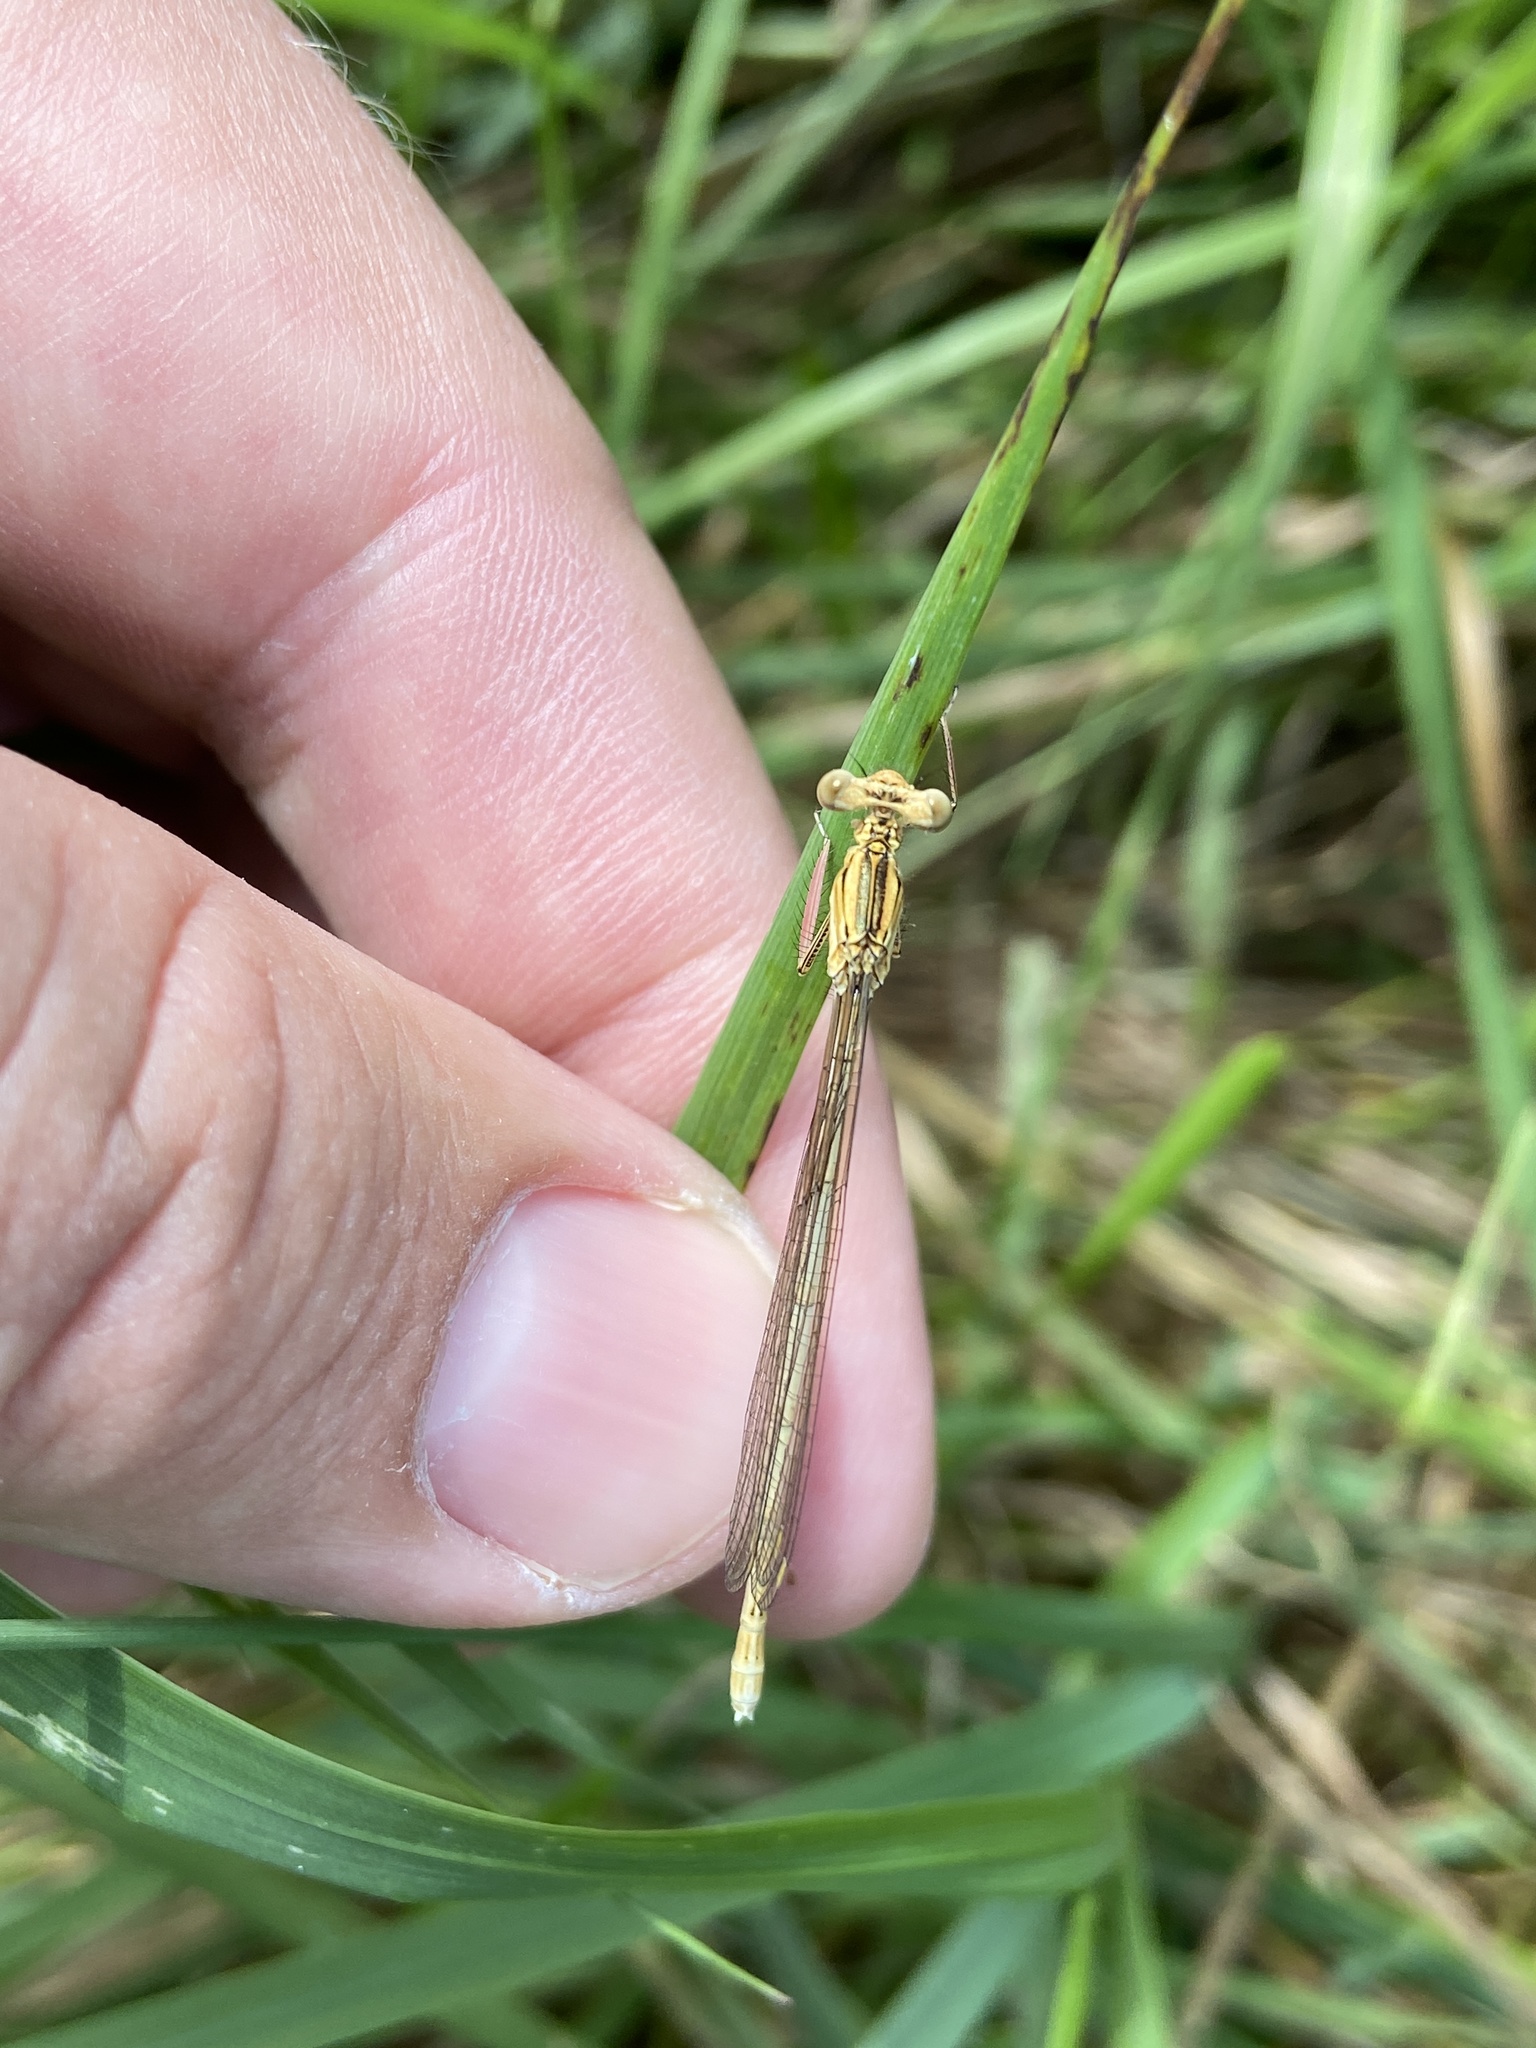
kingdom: Animalia
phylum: Arthropoda
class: Insecta
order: Odonata
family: Platycnemididae
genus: Platycnemis
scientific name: Platycnemis pennipes
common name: White-legged damselfly
